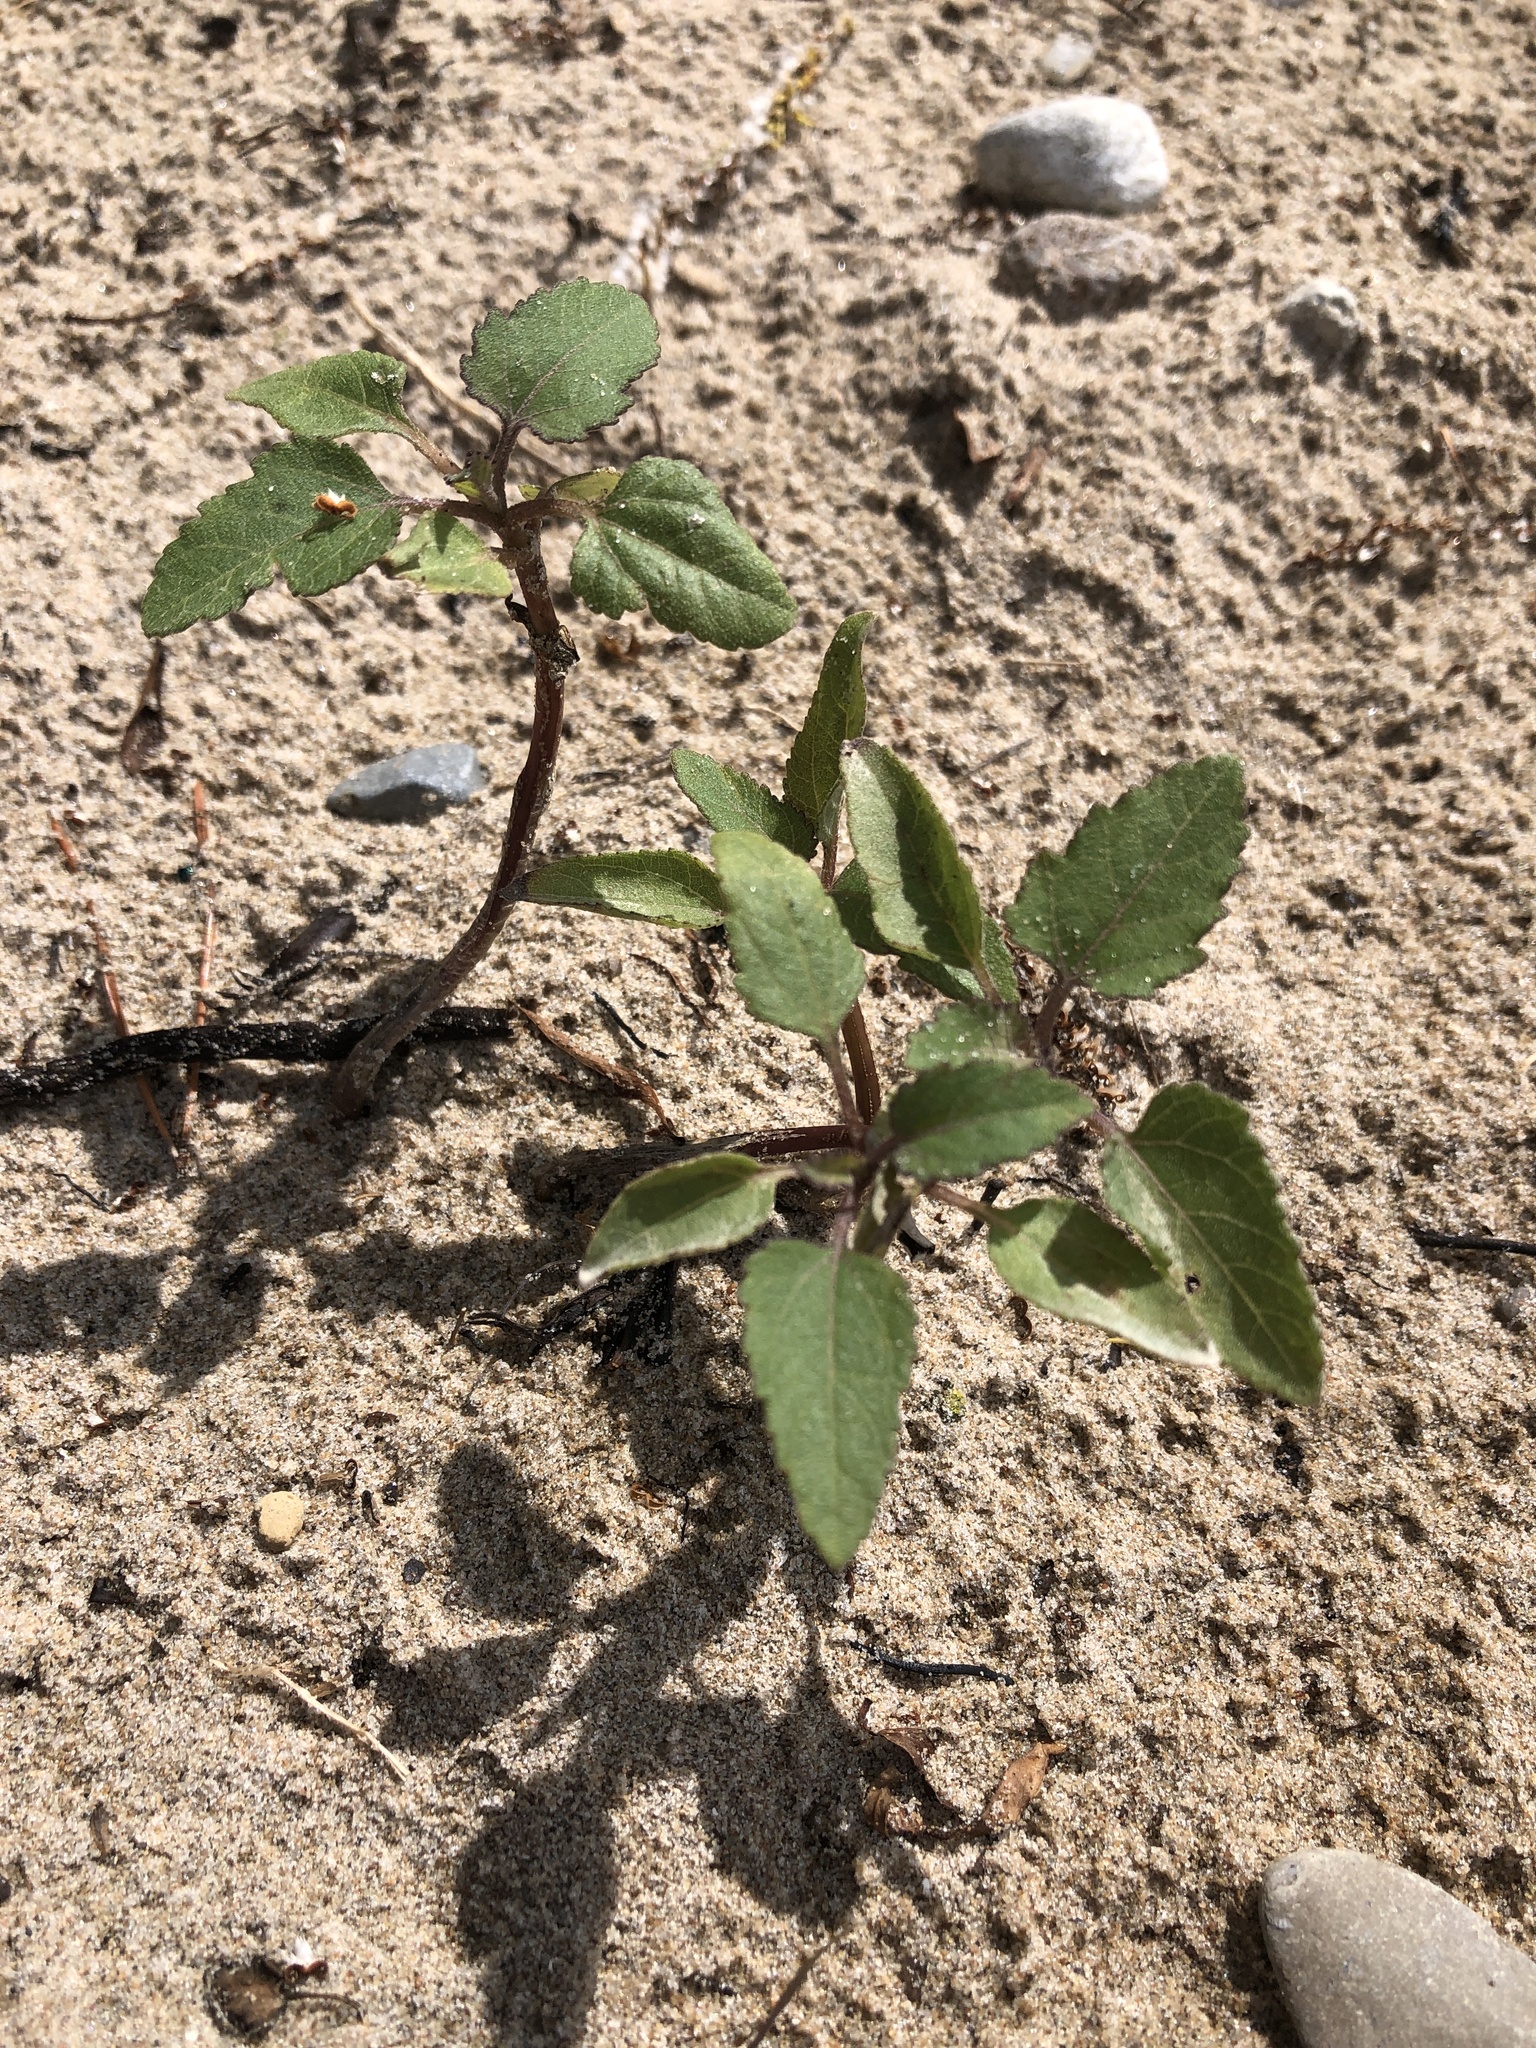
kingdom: Plantae
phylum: Tracheophyta
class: Magnoliopsida
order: Asterales
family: Asteraceae
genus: Xanthium
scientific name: Xanthium strumarium
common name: Rough cocklebur
